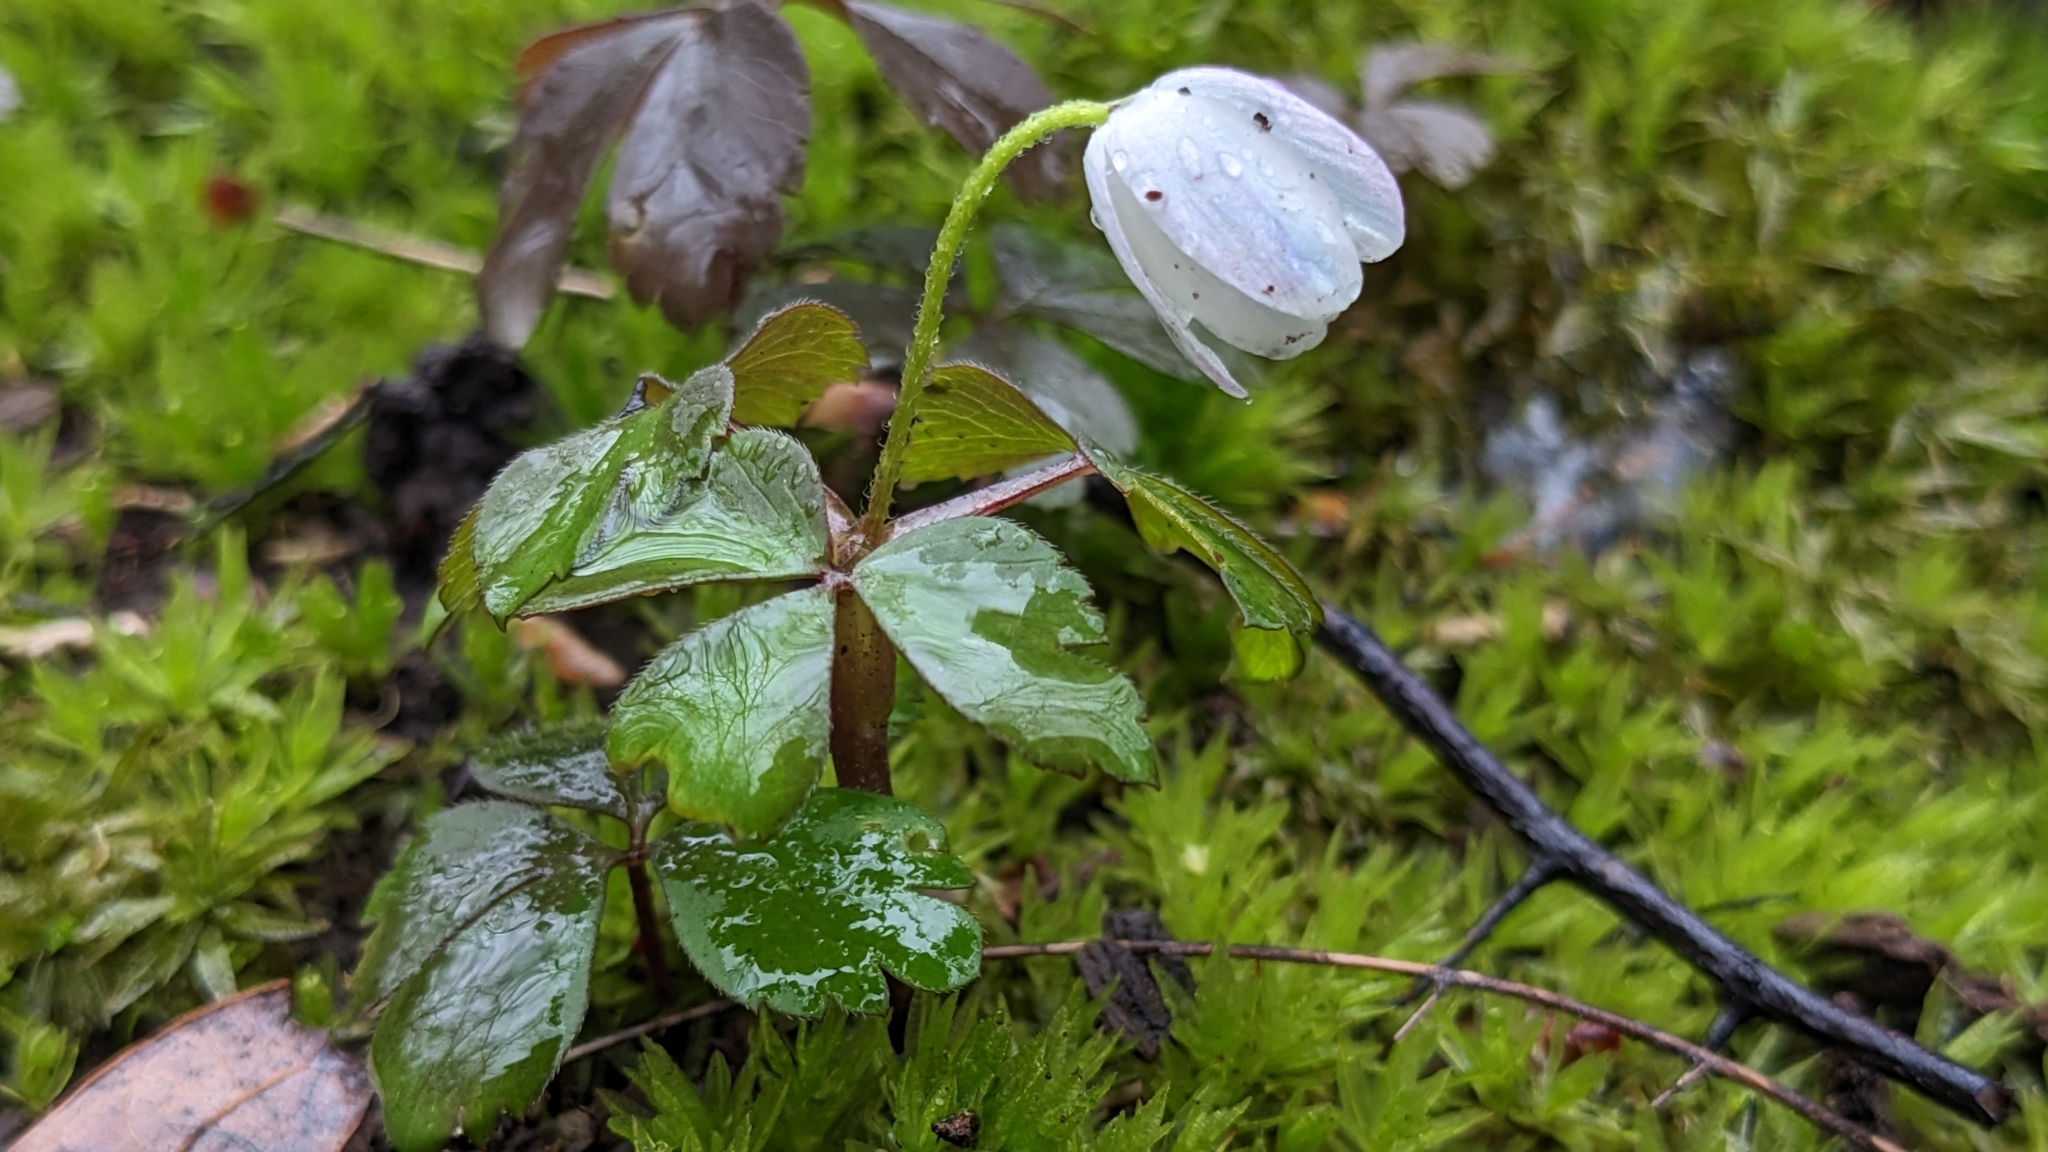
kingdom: Plantae
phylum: Tracheophyta
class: Magnoliopsida
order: Ranunculales
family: Ranunculaceae
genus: Anemone
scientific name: Anemone quinquefolia
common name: Wood anemone
